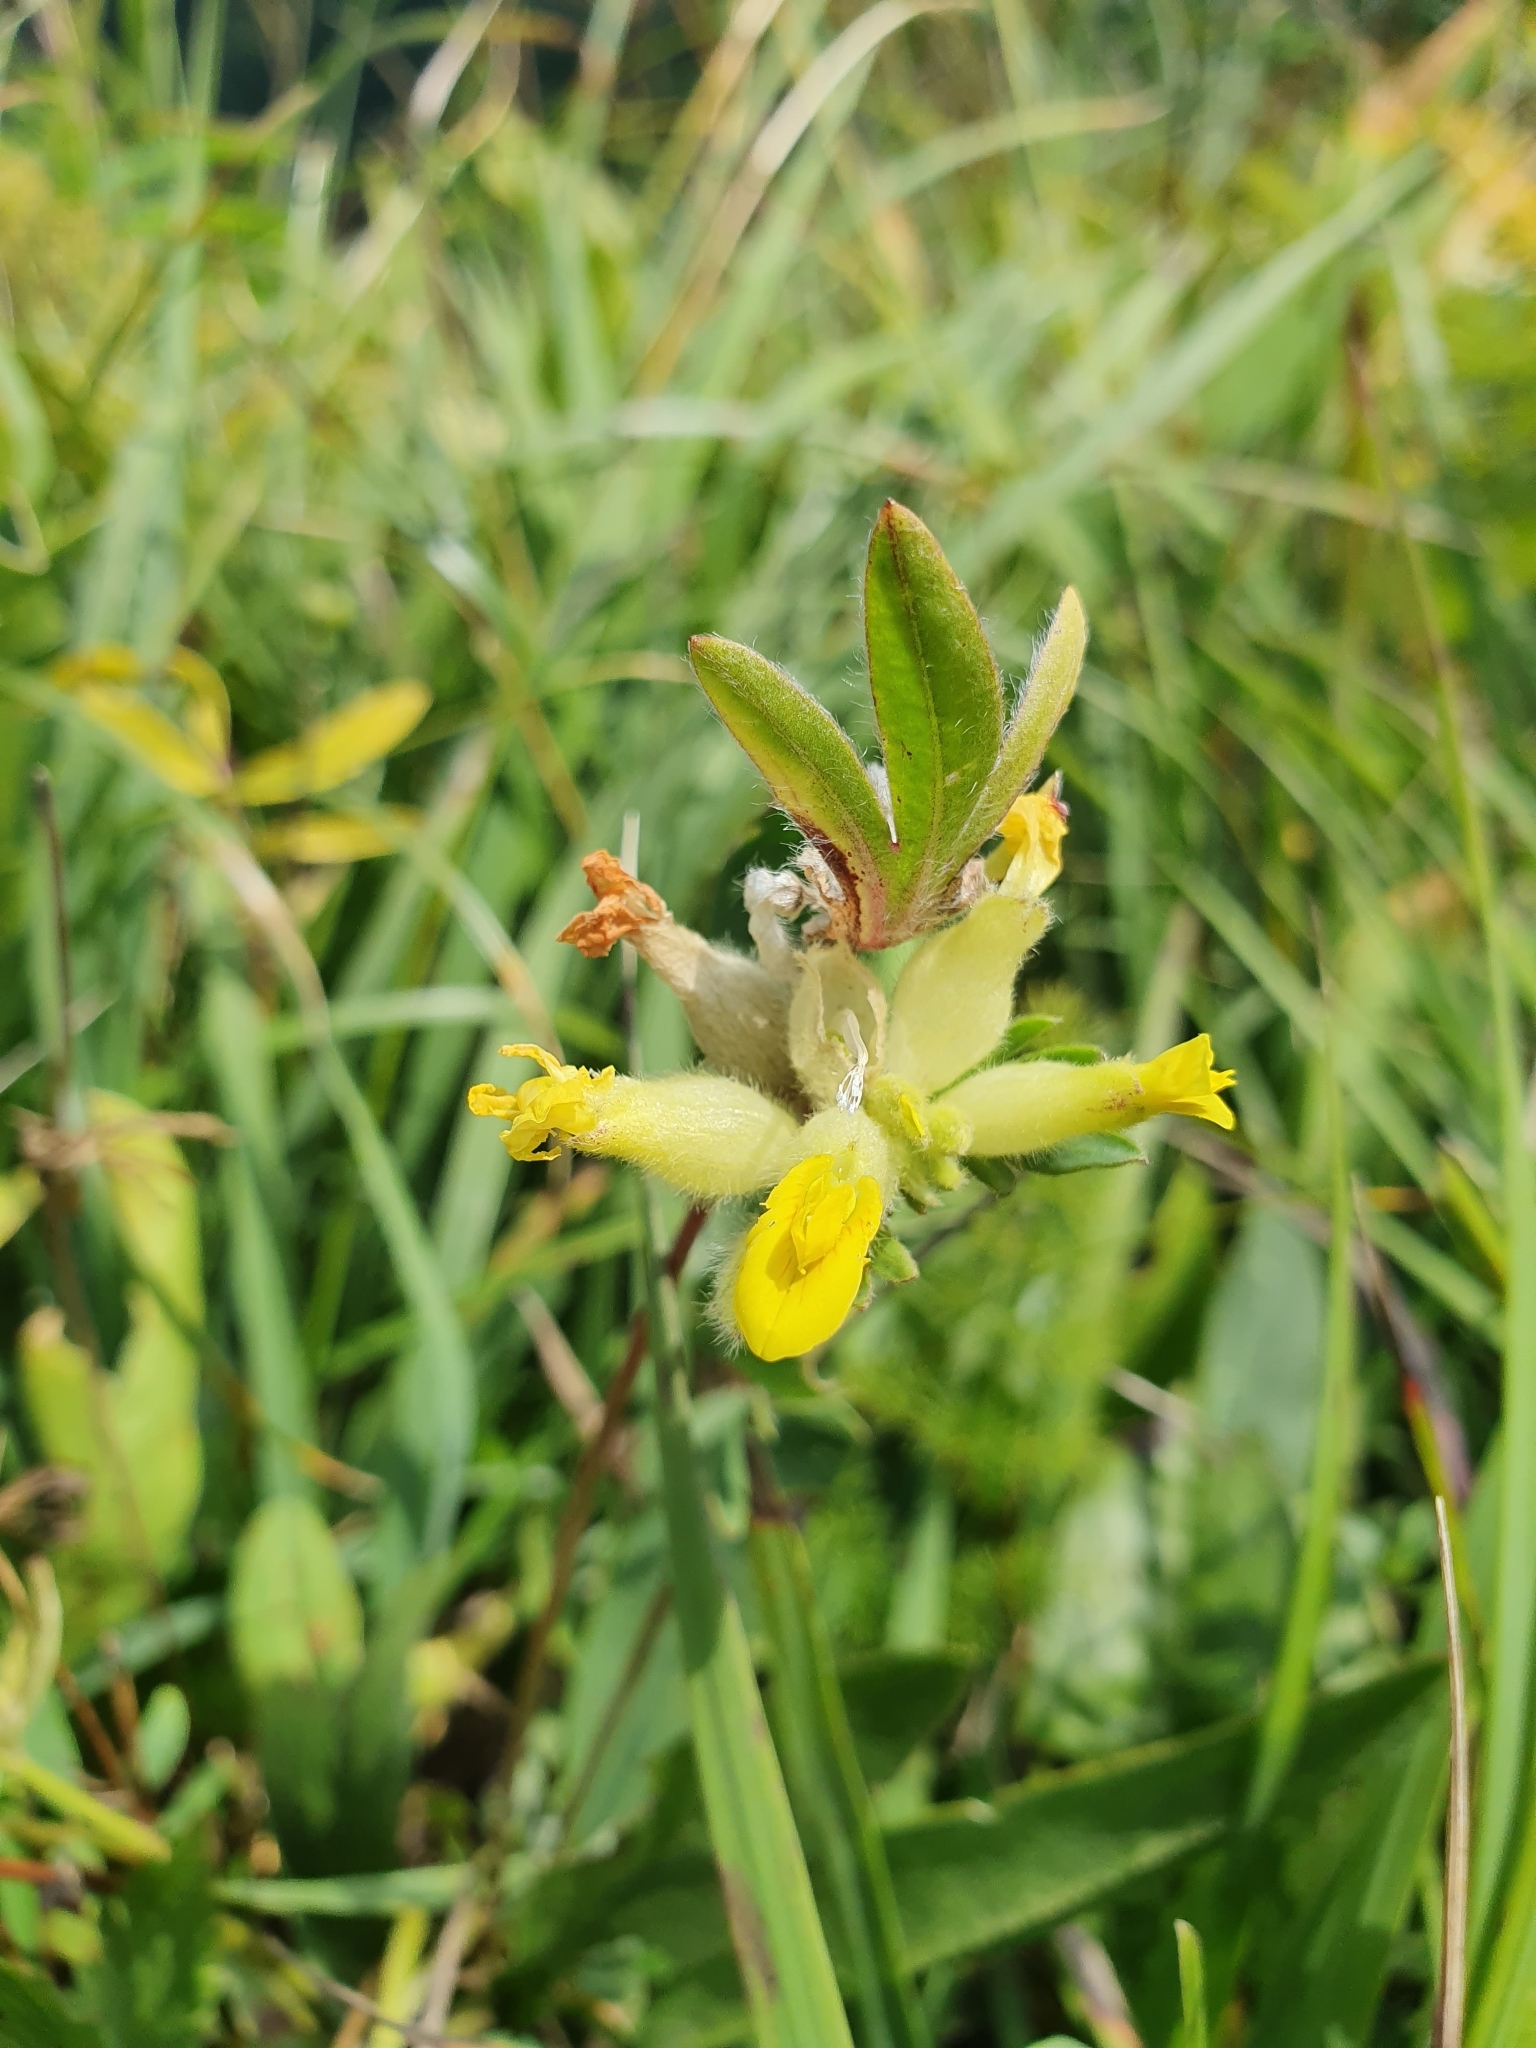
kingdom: Plantae
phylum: Tracheophyta
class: Magnoliopsida
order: Fabales
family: Fabaceae
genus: Anthyllis
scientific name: Anthyllis vulneraria
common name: Kidney vetch
